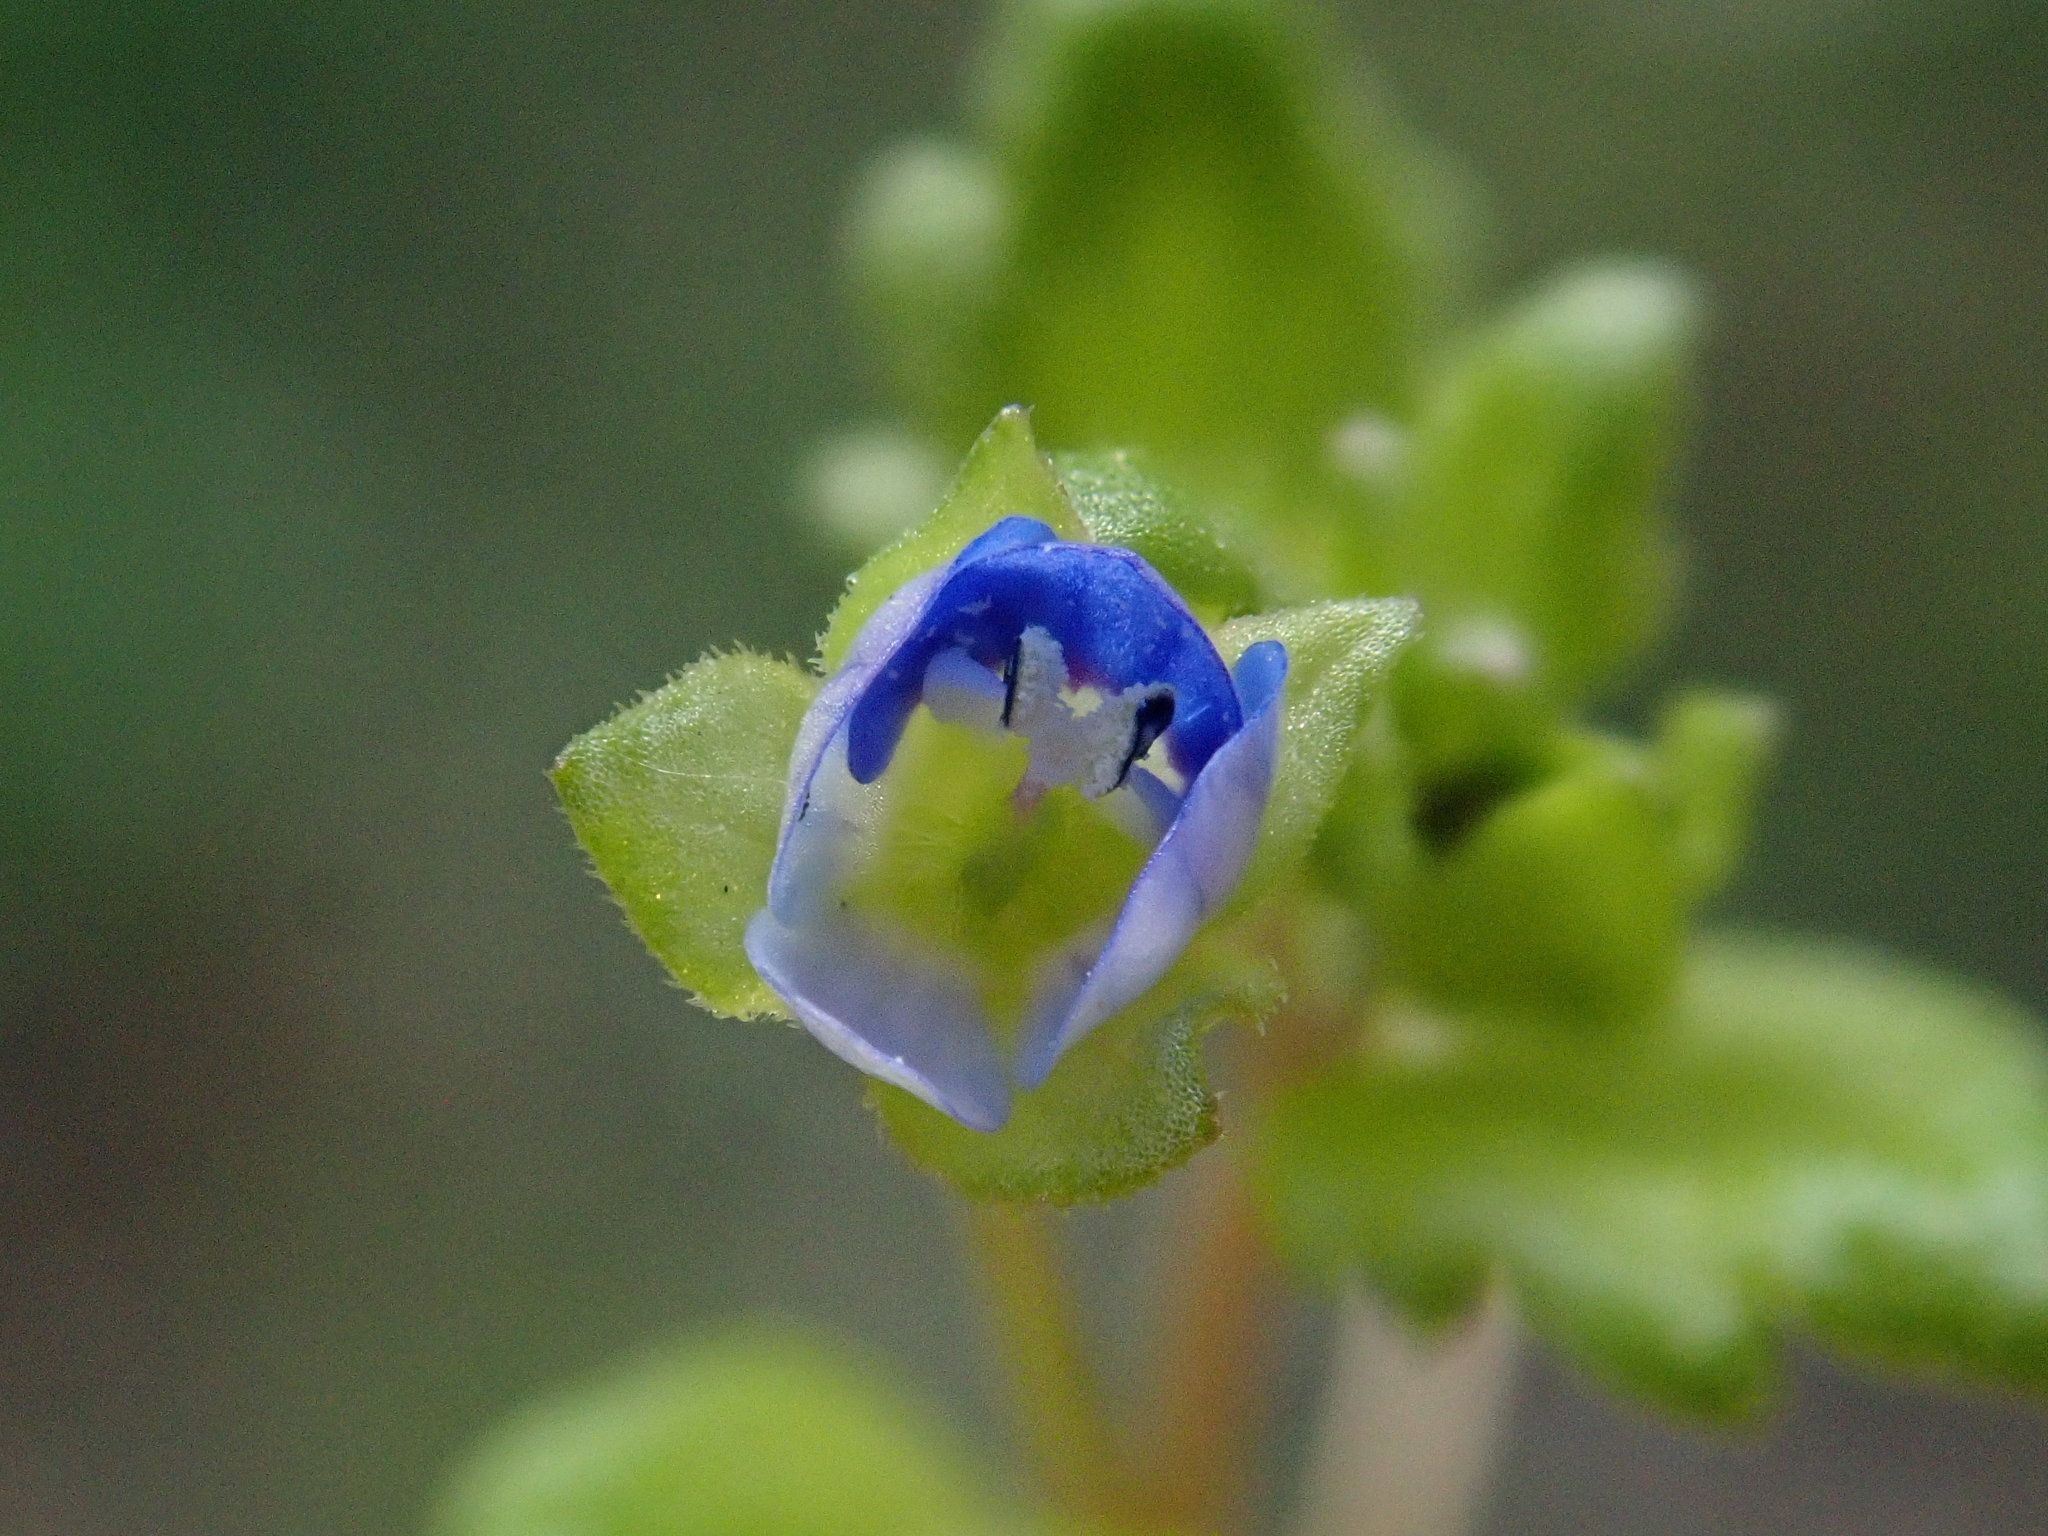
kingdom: Plantae
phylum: Tracheophyta
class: Magnoliopsida
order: Lamiales
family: Plantaginaceae
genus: Veronica
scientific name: Veronica polita
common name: Grey field-speedwell
